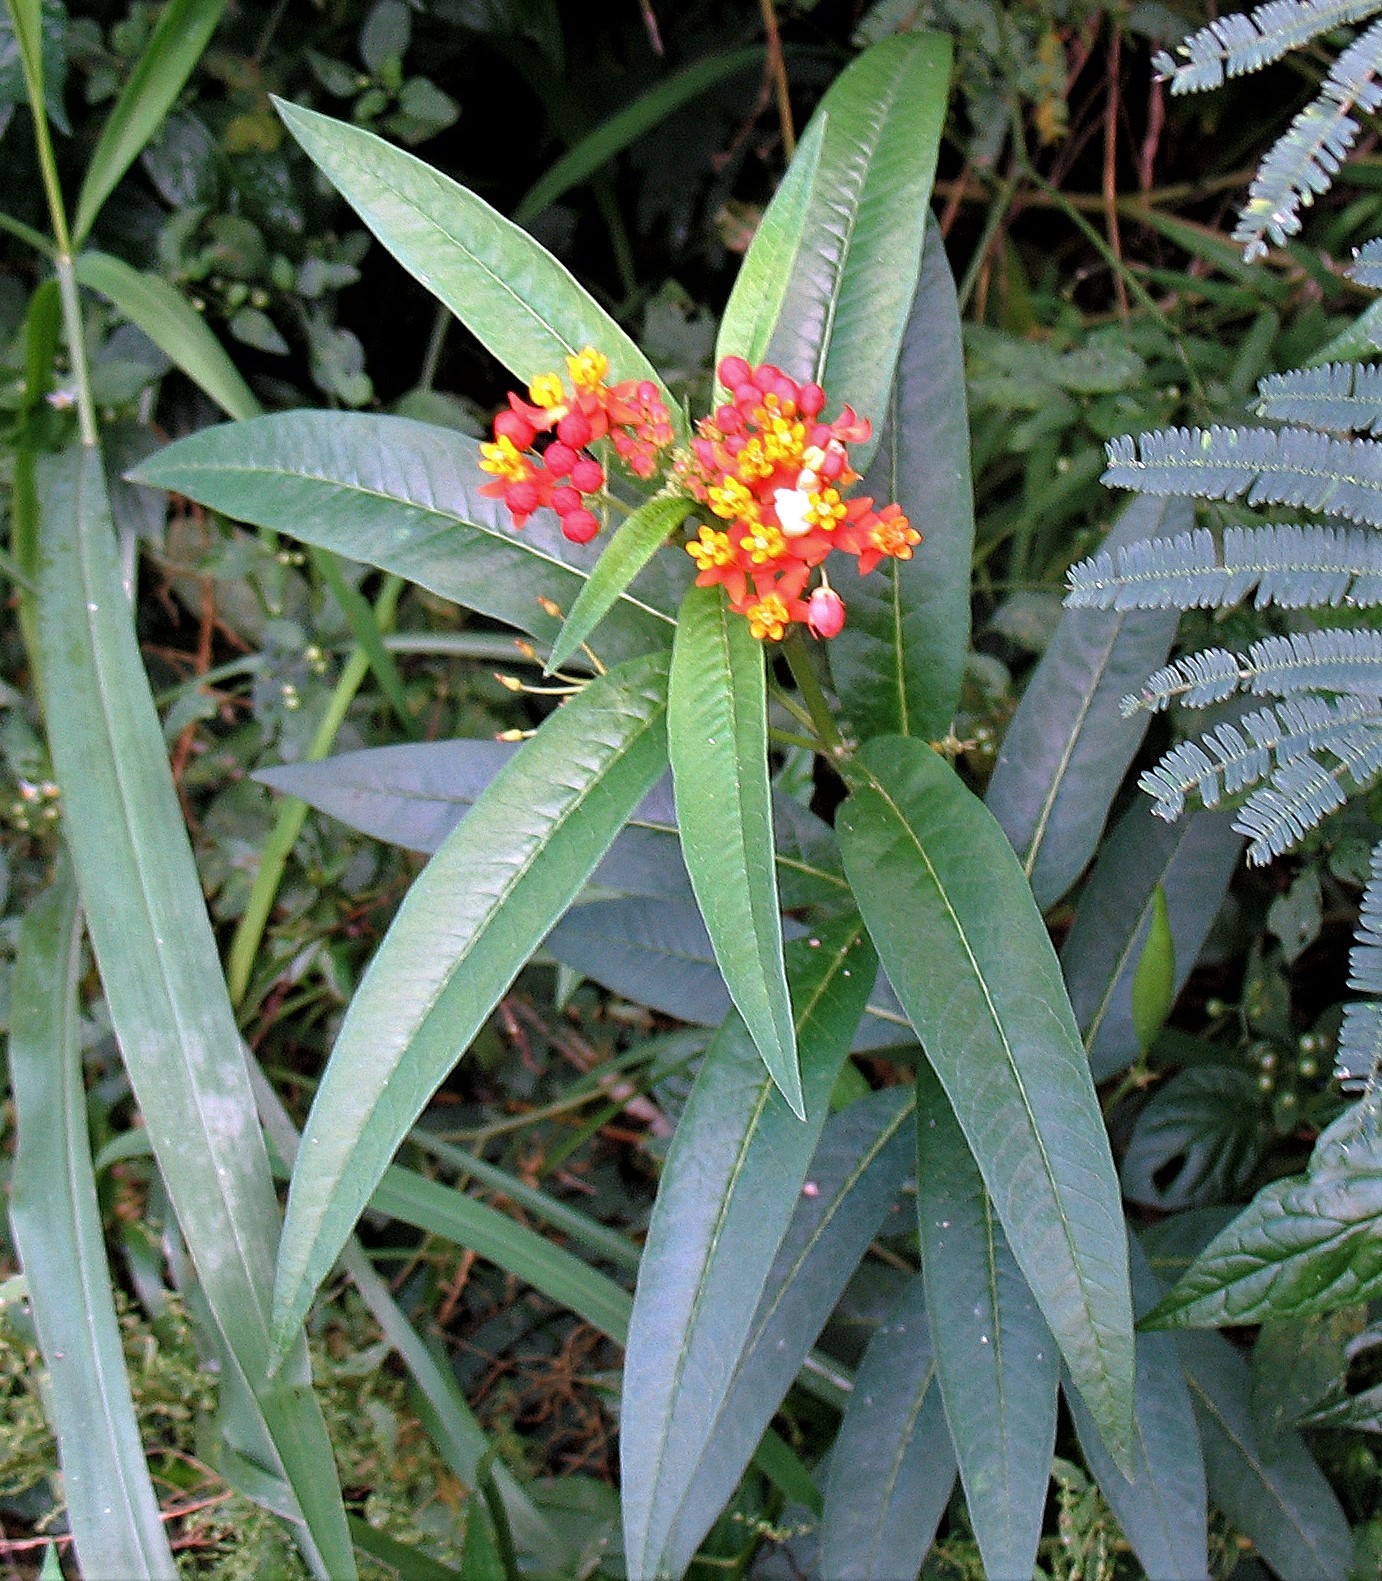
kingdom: Plantae
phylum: Tracheophyta
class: Magnoliopsida
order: Gentianales
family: Apocynaceae
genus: Asclepias
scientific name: Asclepias curassavica
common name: Bloodflower
